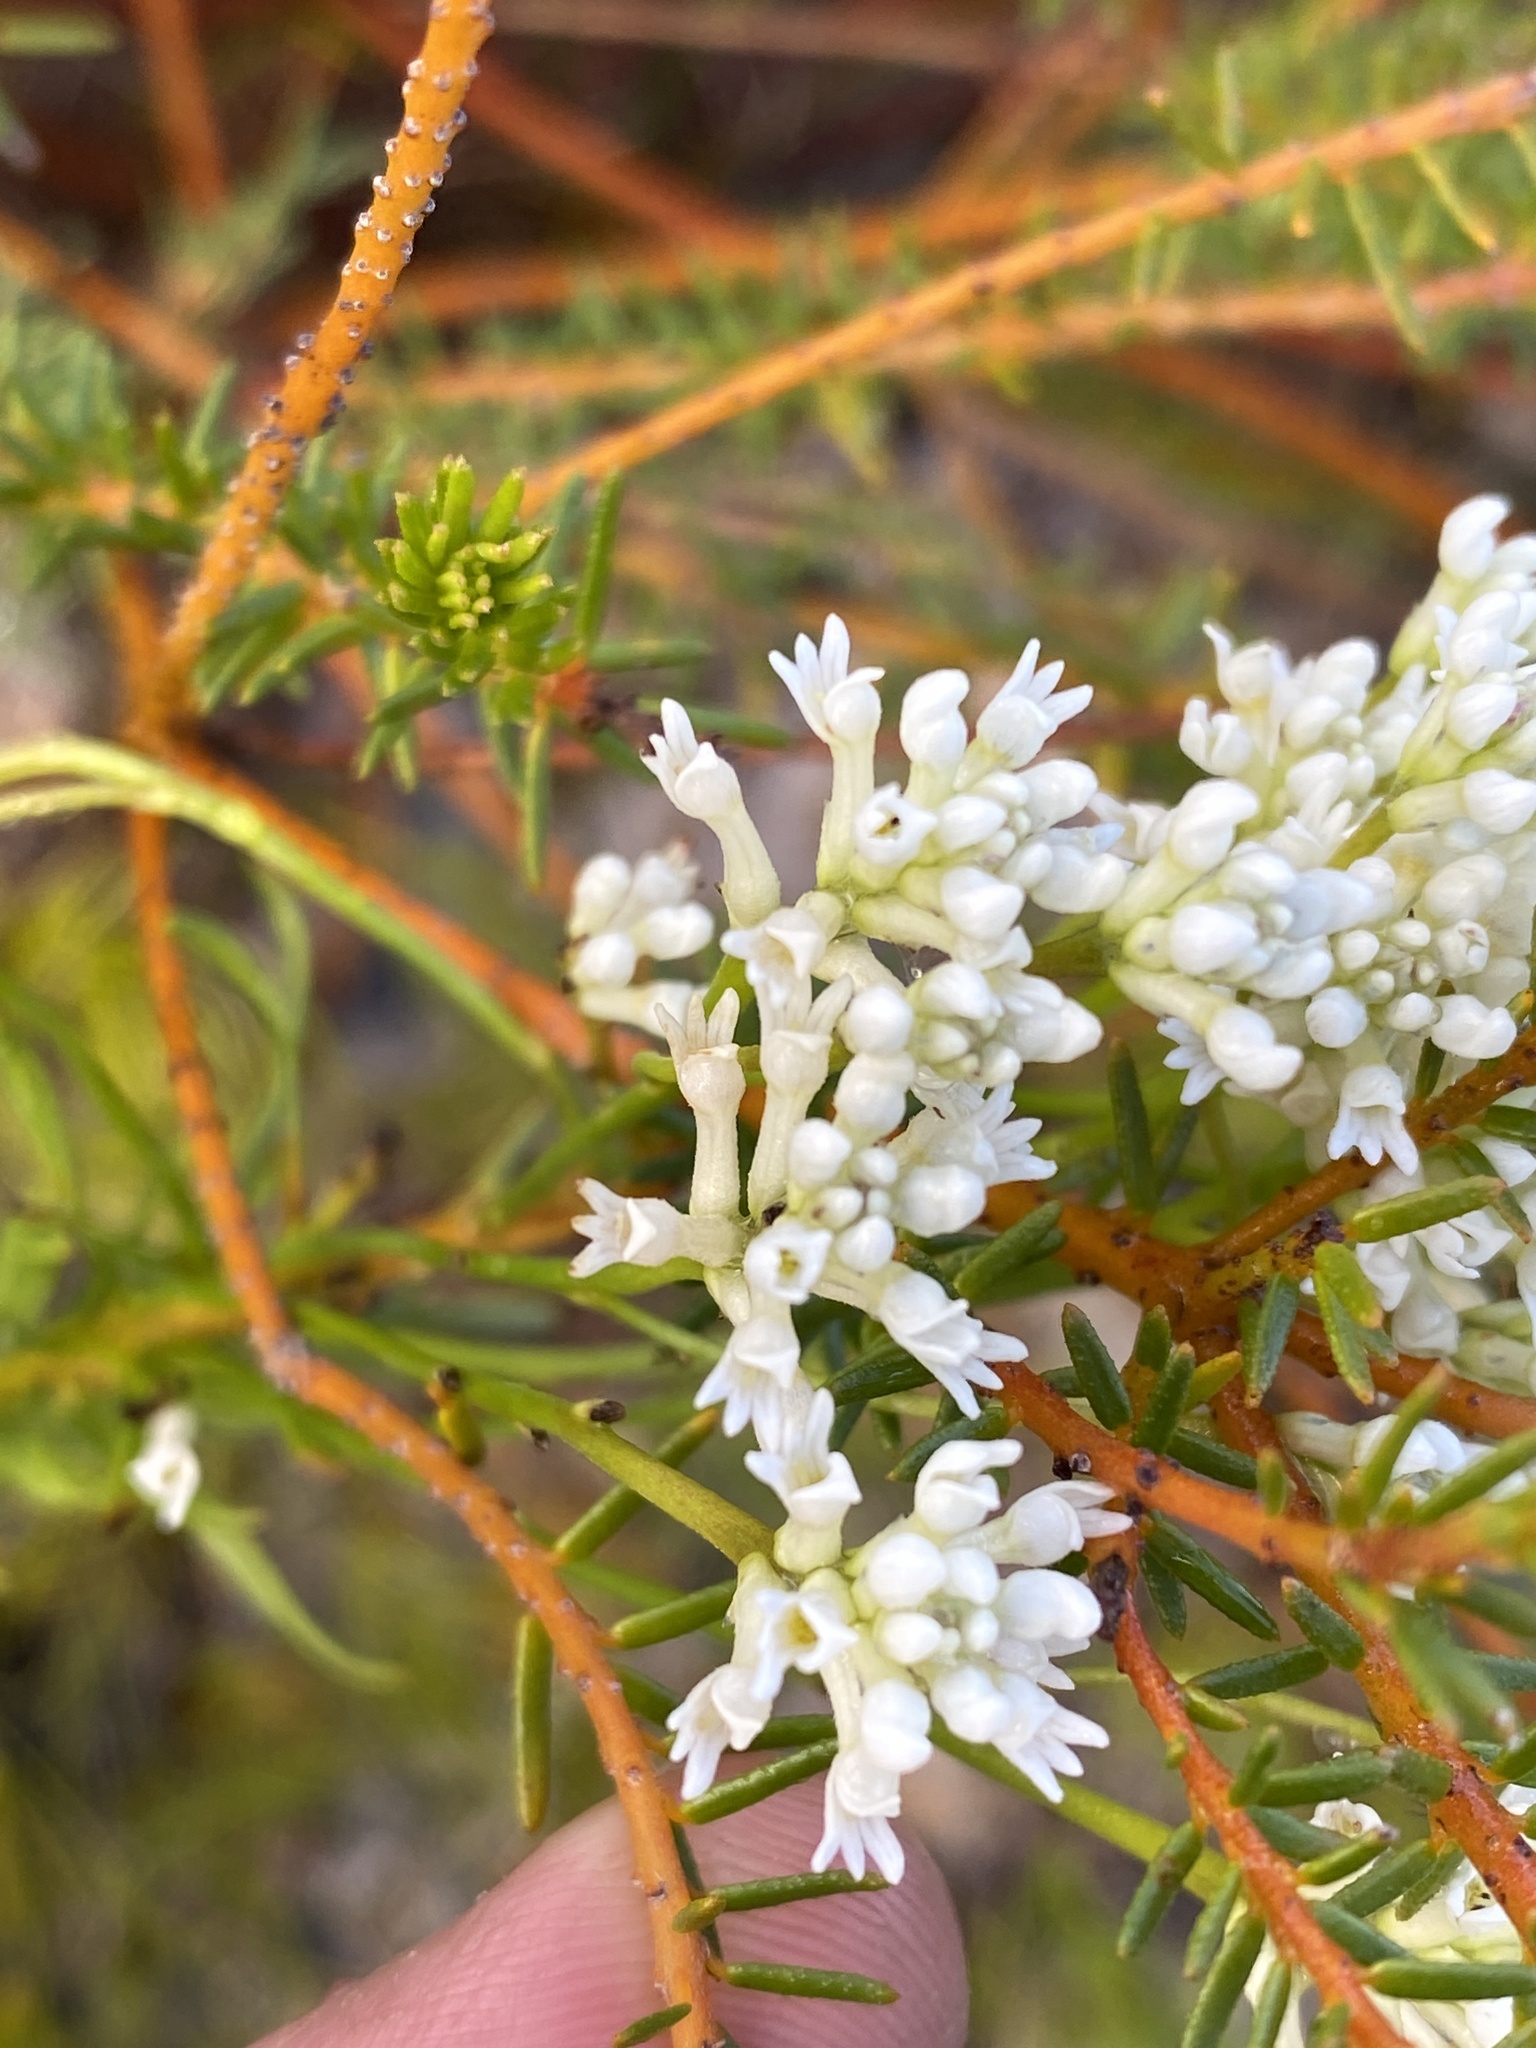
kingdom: Plantae
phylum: Tracheophyta
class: Magnoliopsida
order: Proteales
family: Proteaceae
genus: Conospermum
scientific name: Conospermum taxifolium
